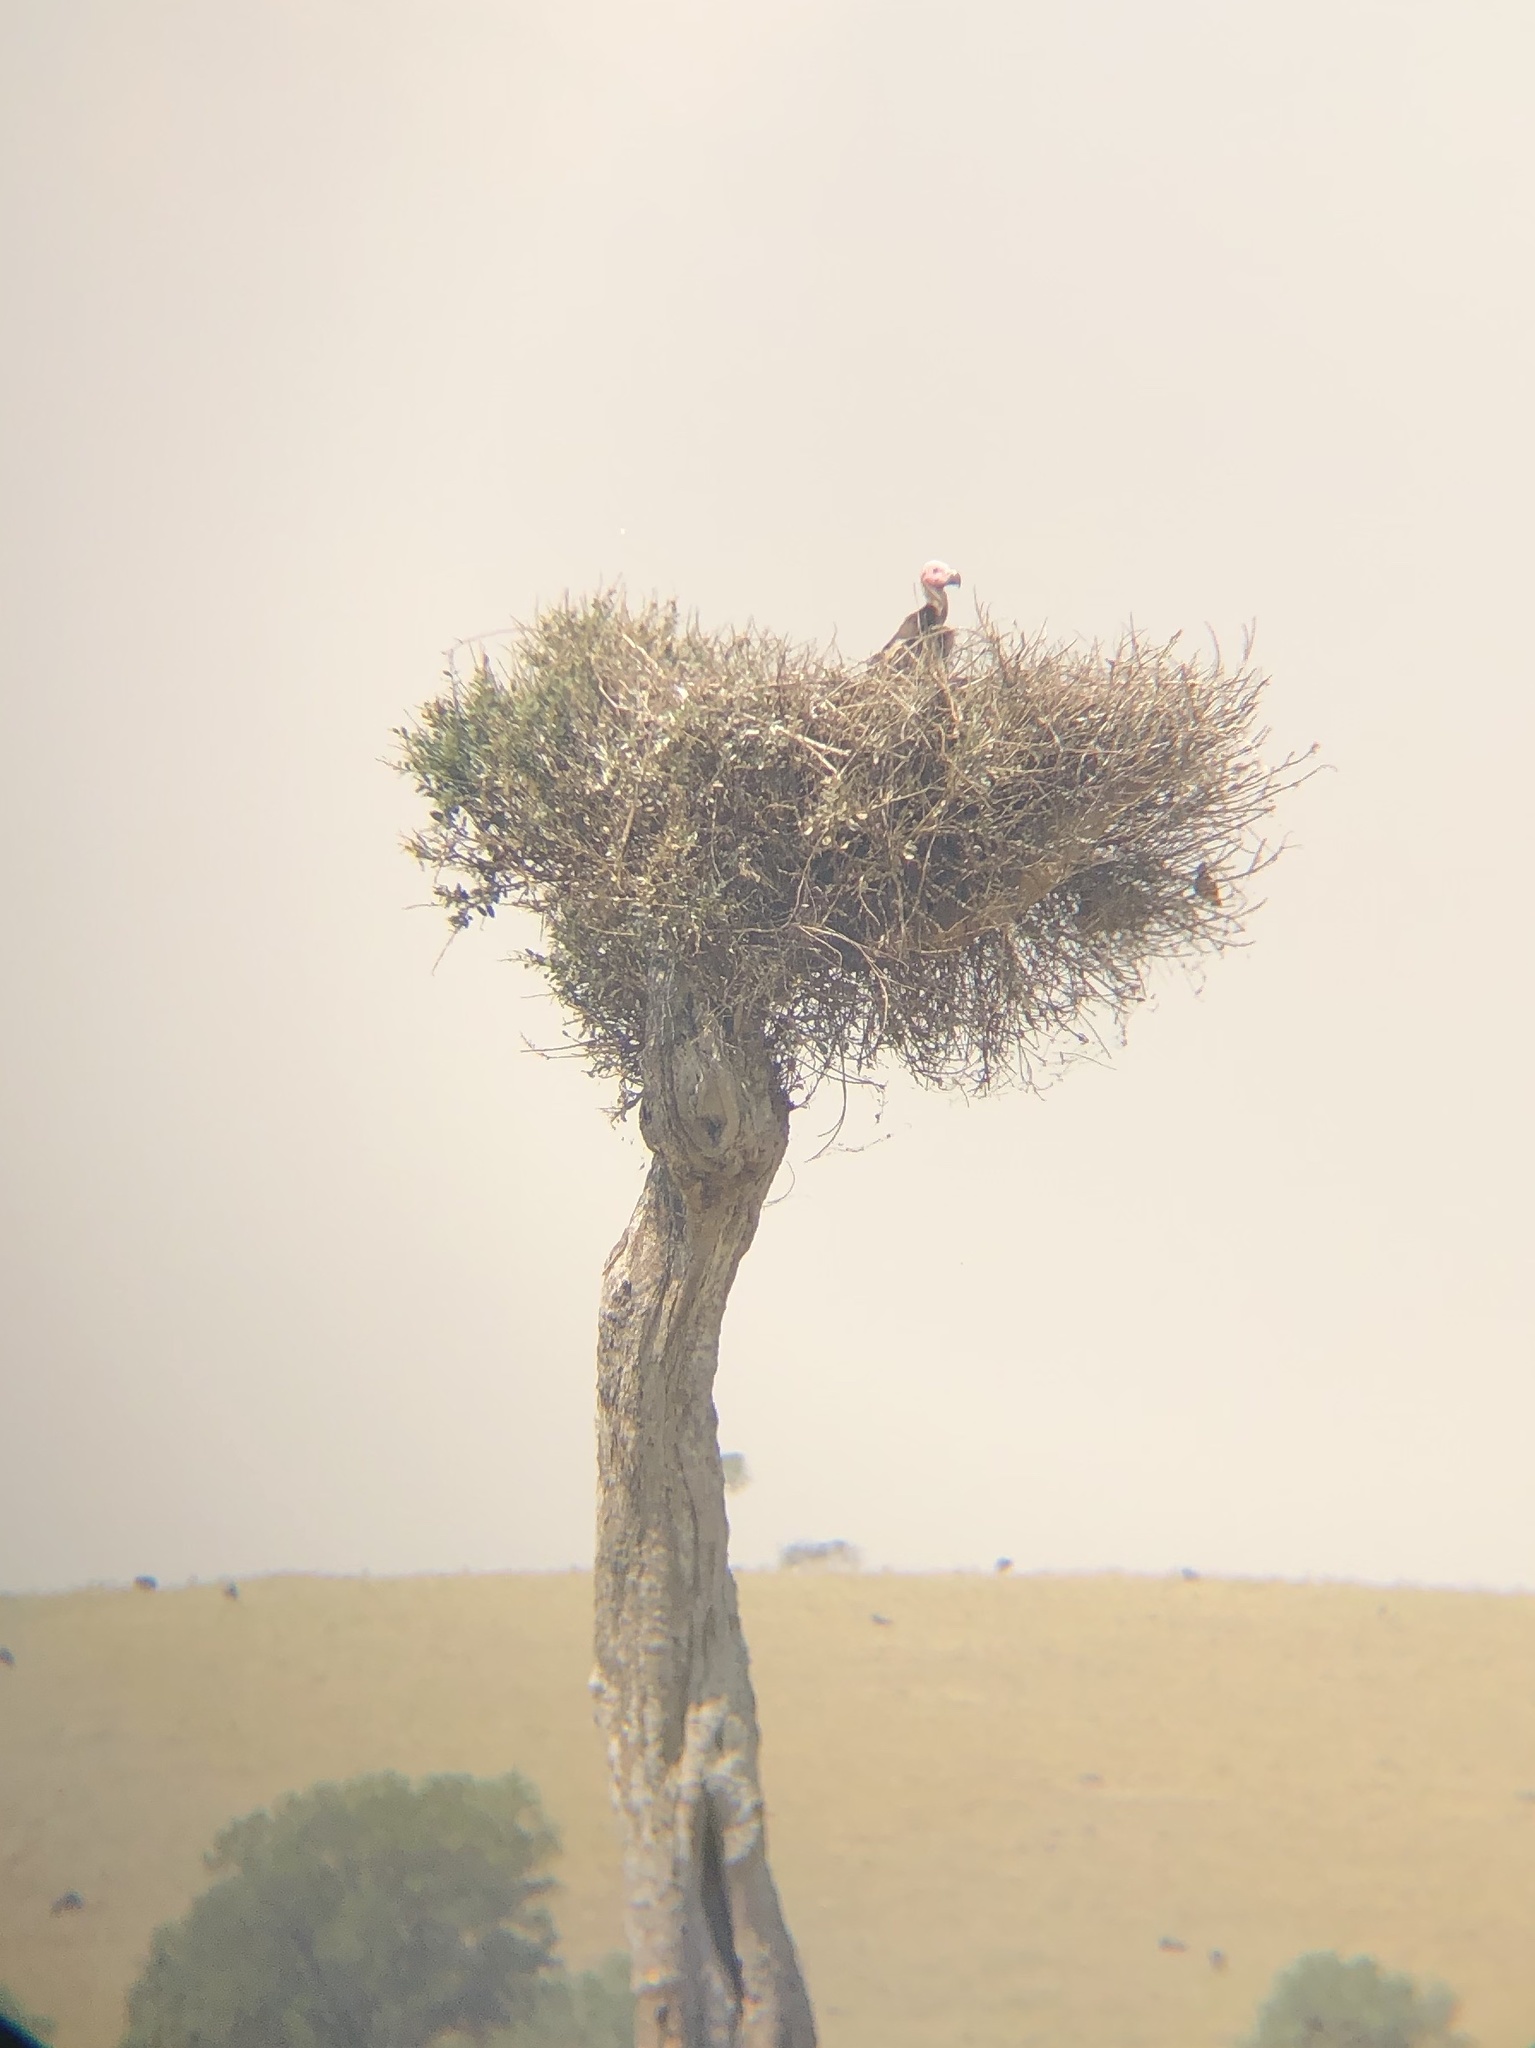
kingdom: Animalia
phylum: Chordata
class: Aves
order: Accipitriformes
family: Accipitridae
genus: Torgos
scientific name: Torgos tracheliotos
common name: Lappet-faced vulture
